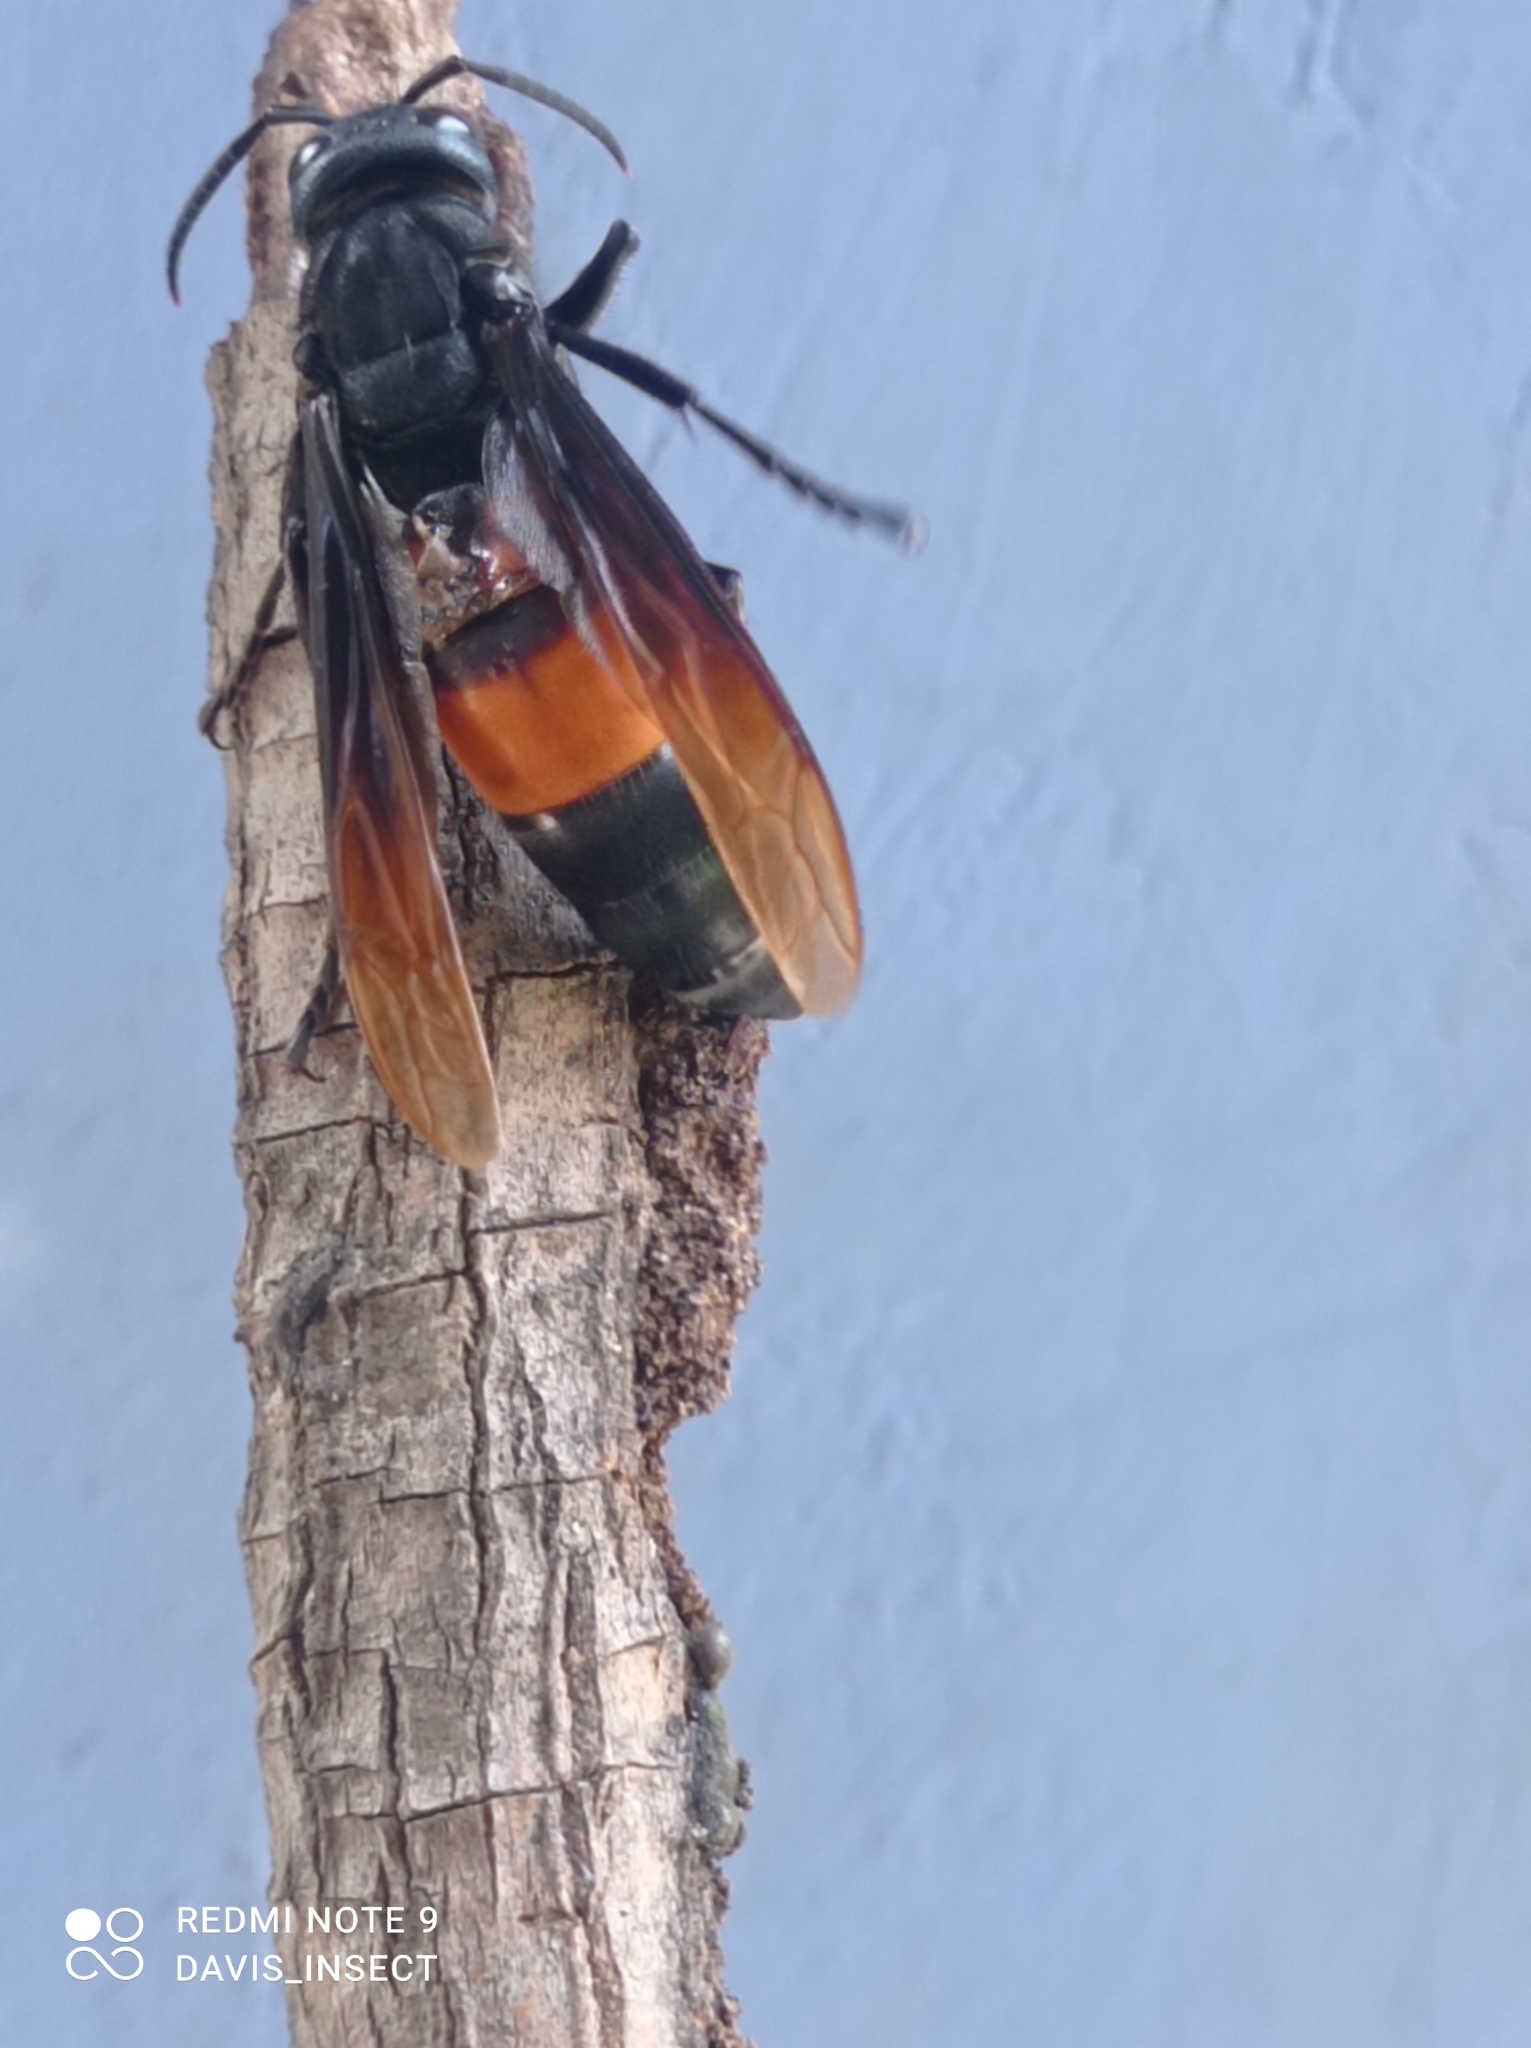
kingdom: Animalia
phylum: Arthropoda
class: Insecta
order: Hymenoptera
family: Vespidae
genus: Vespa
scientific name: Vespa tropica
